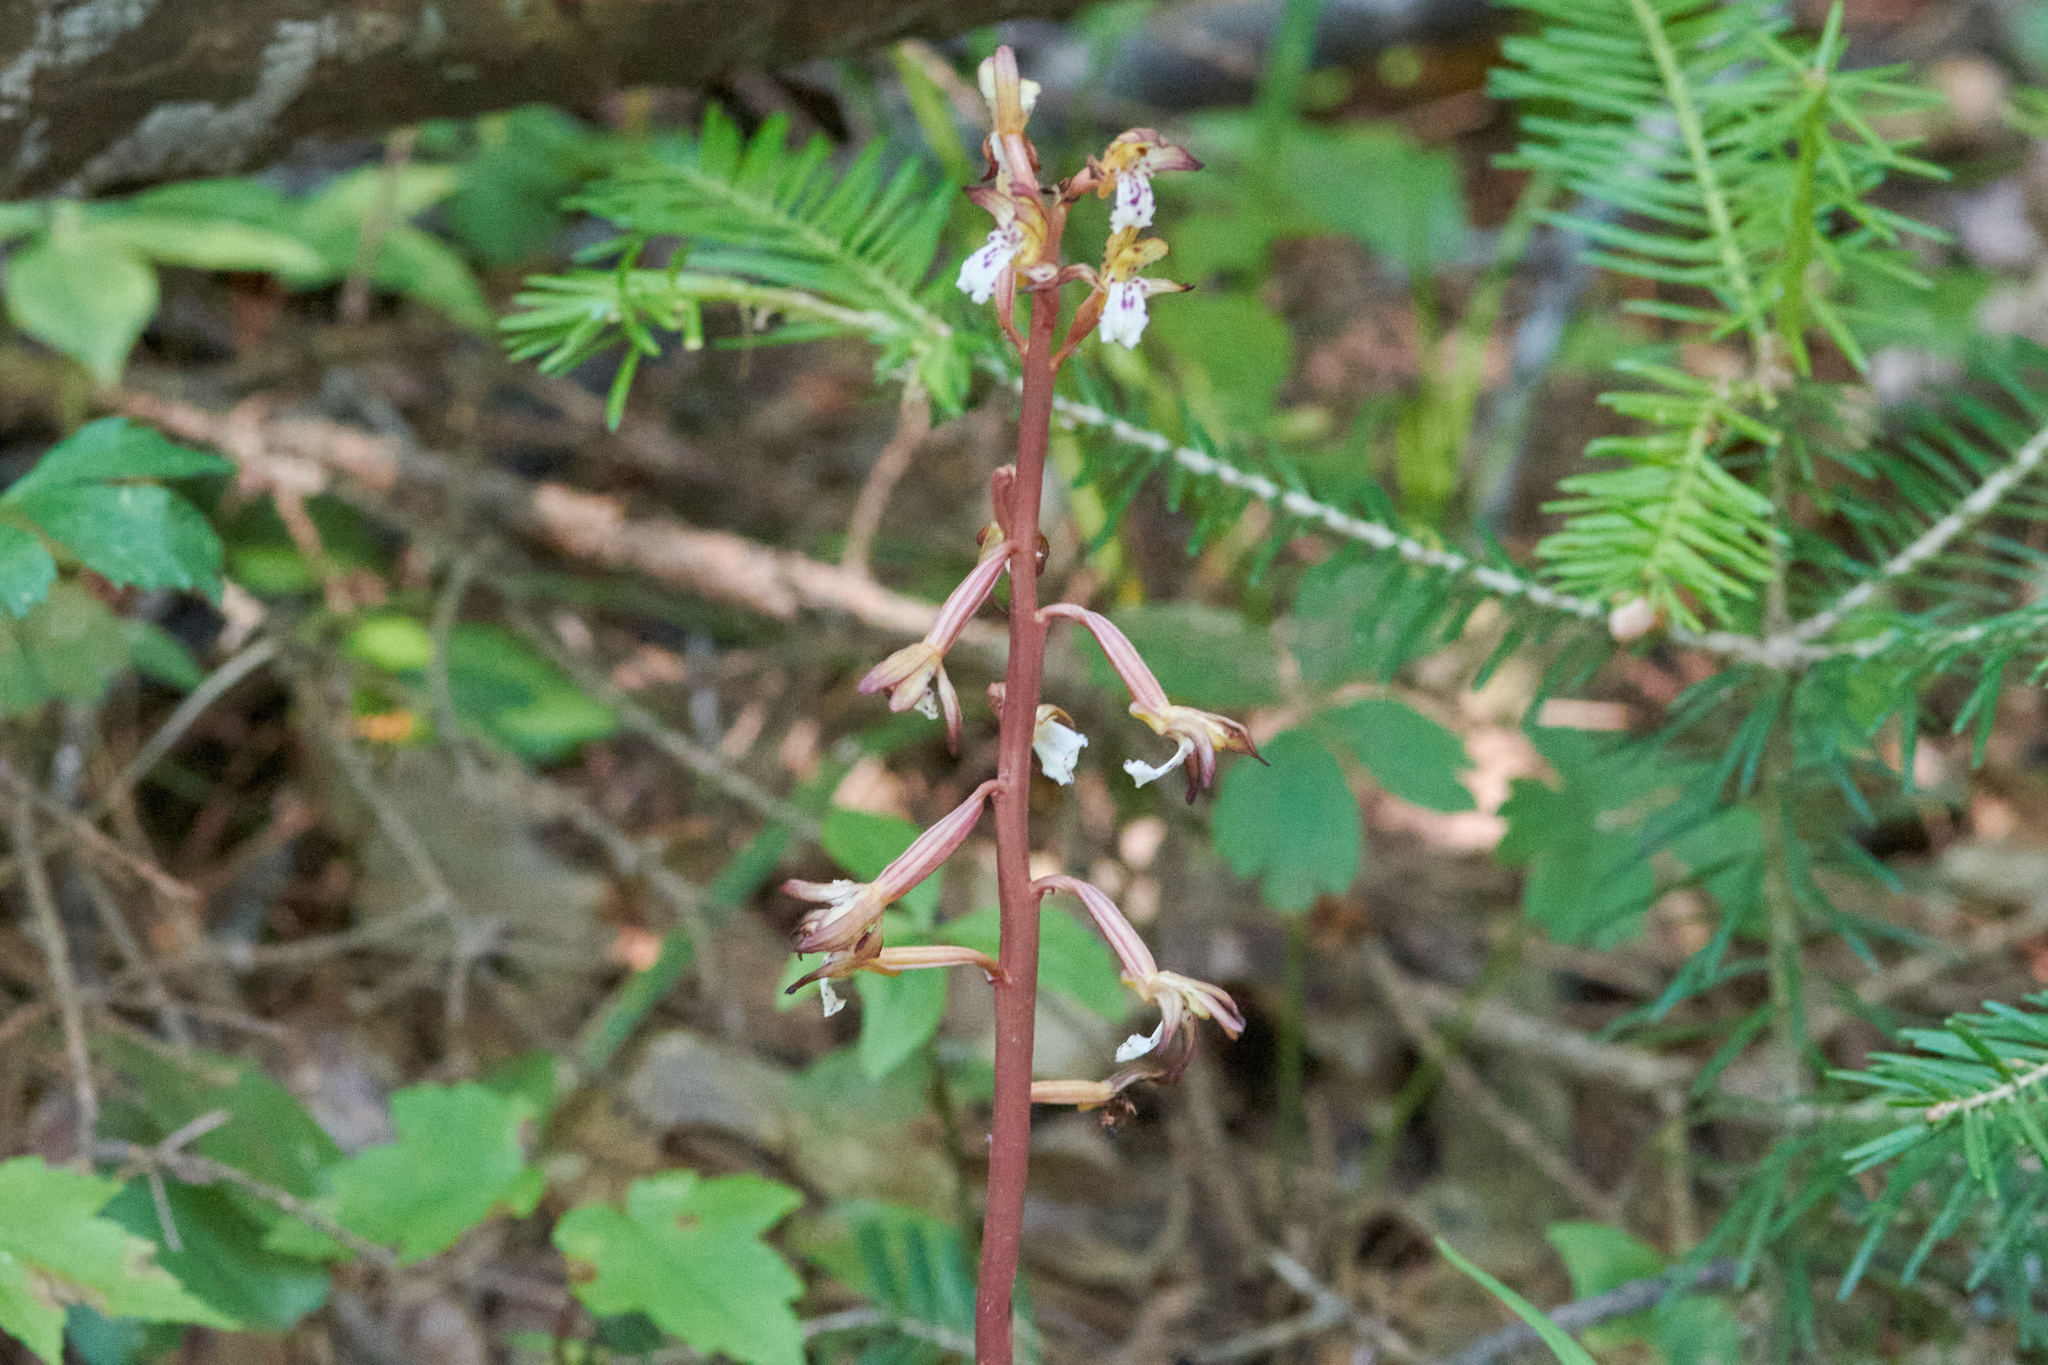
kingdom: Plantae
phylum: Tracheophyta
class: Liliopsida
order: Asparagales
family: Orchidaceae
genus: Corallorhiza
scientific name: Corallorhiza maculata
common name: Spotted coralroot
